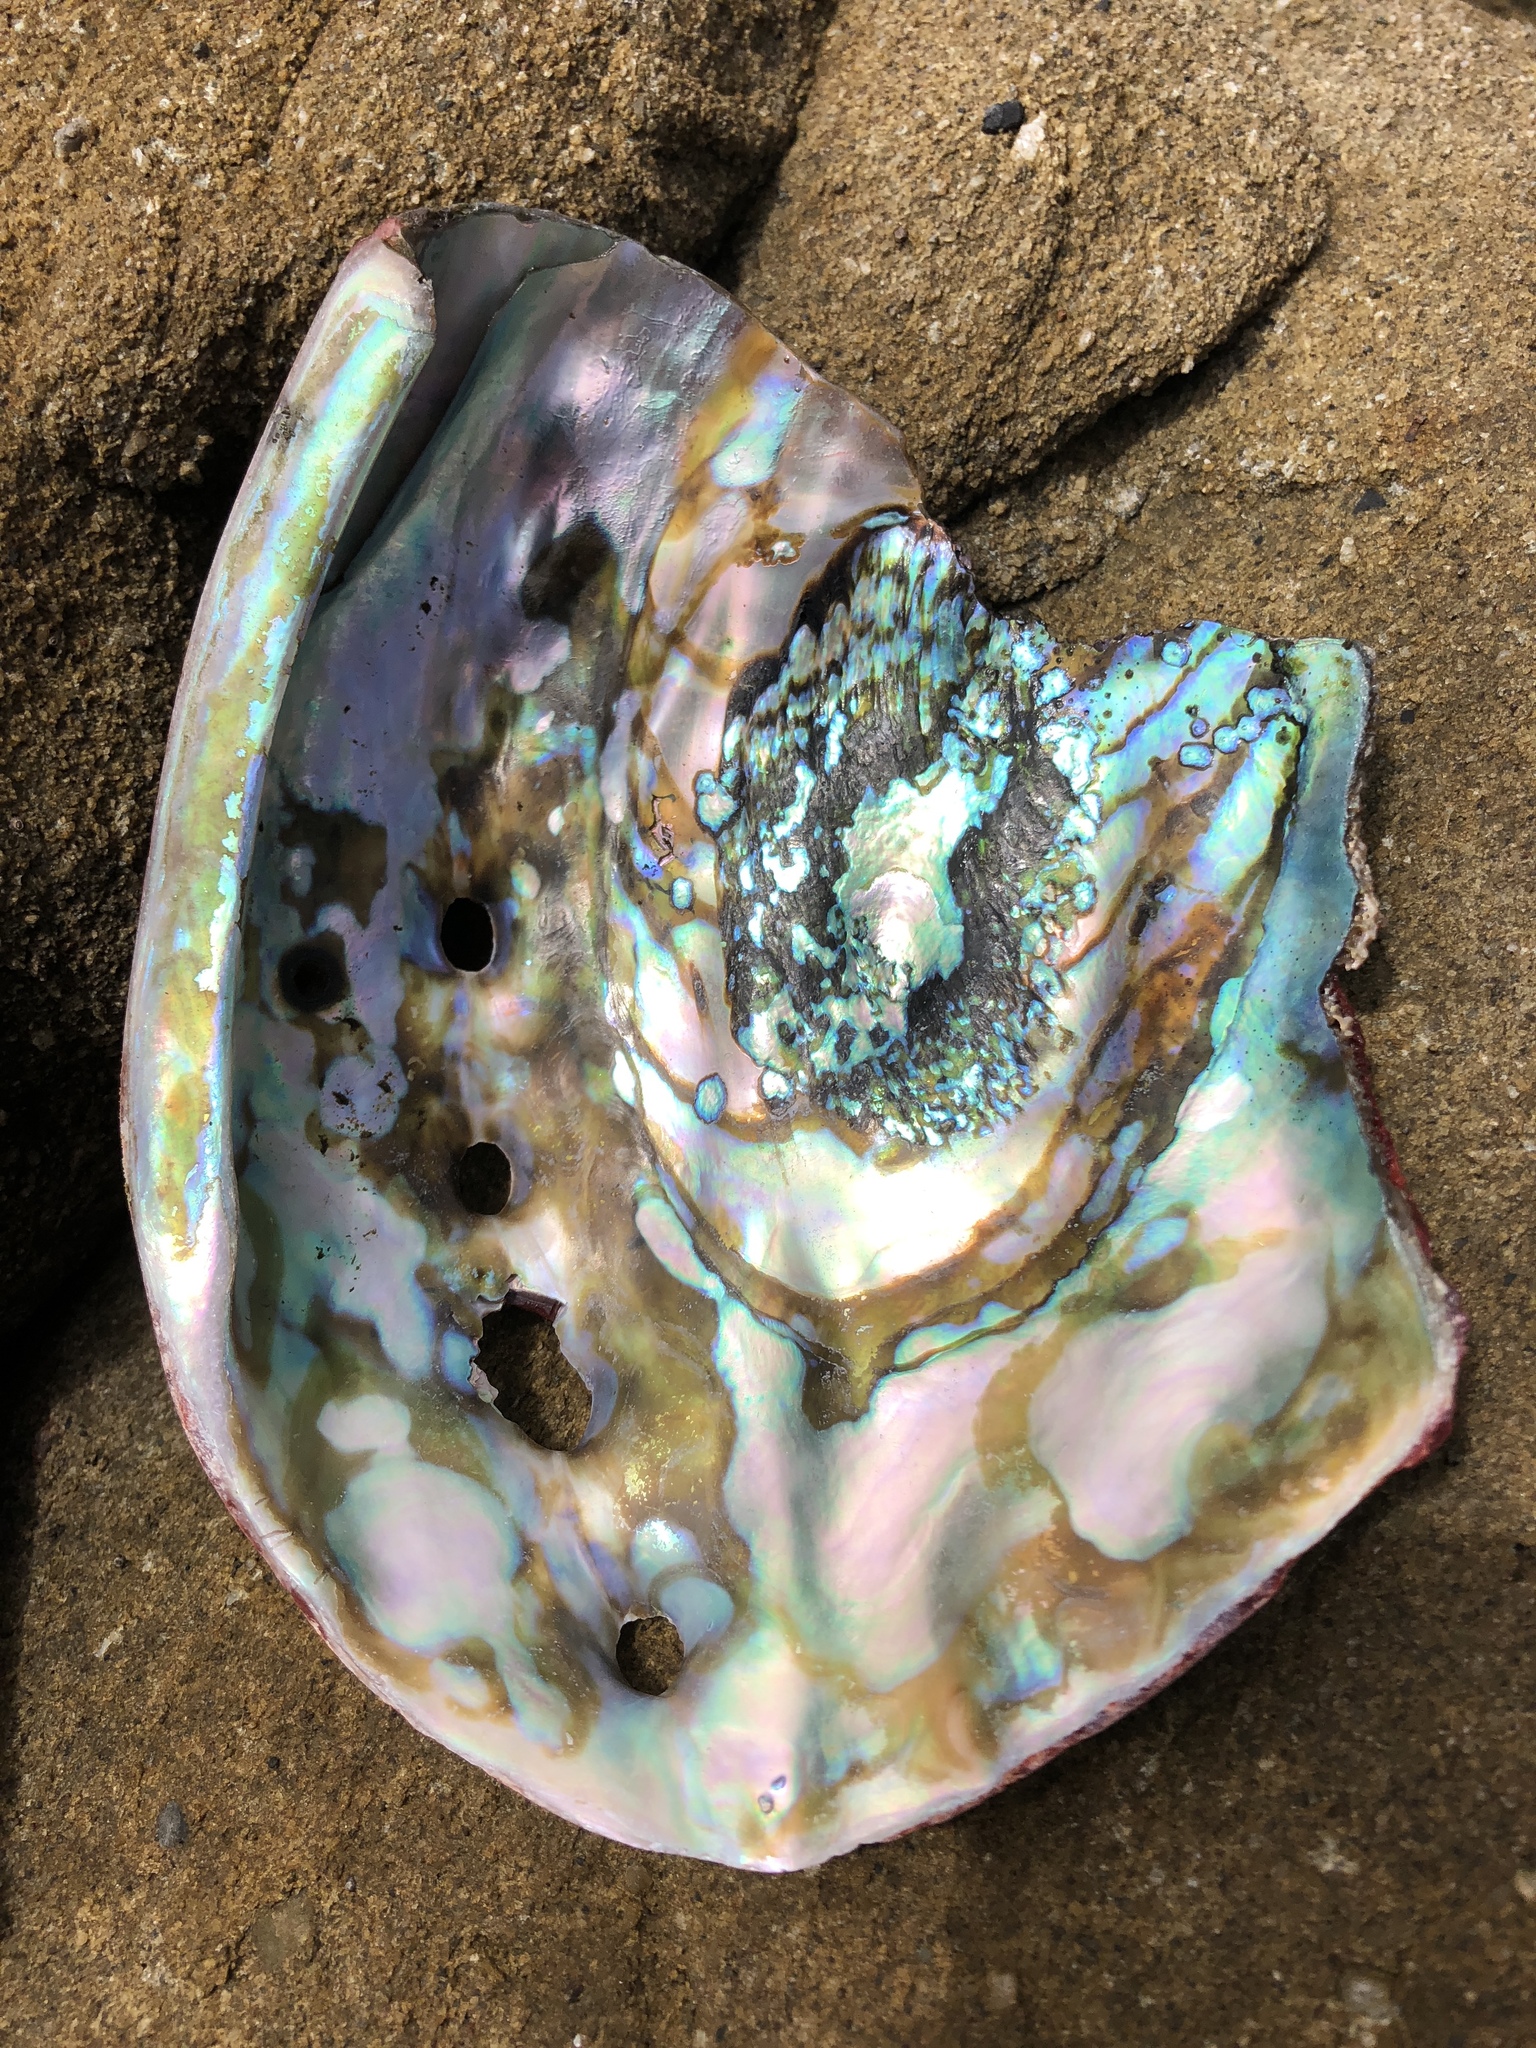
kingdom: Animalia
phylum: Mollusca
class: Gastropoda
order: Lepetellida
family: Haliotidae
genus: Haliotis
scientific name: Haliotis rufescens
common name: Red abalone
